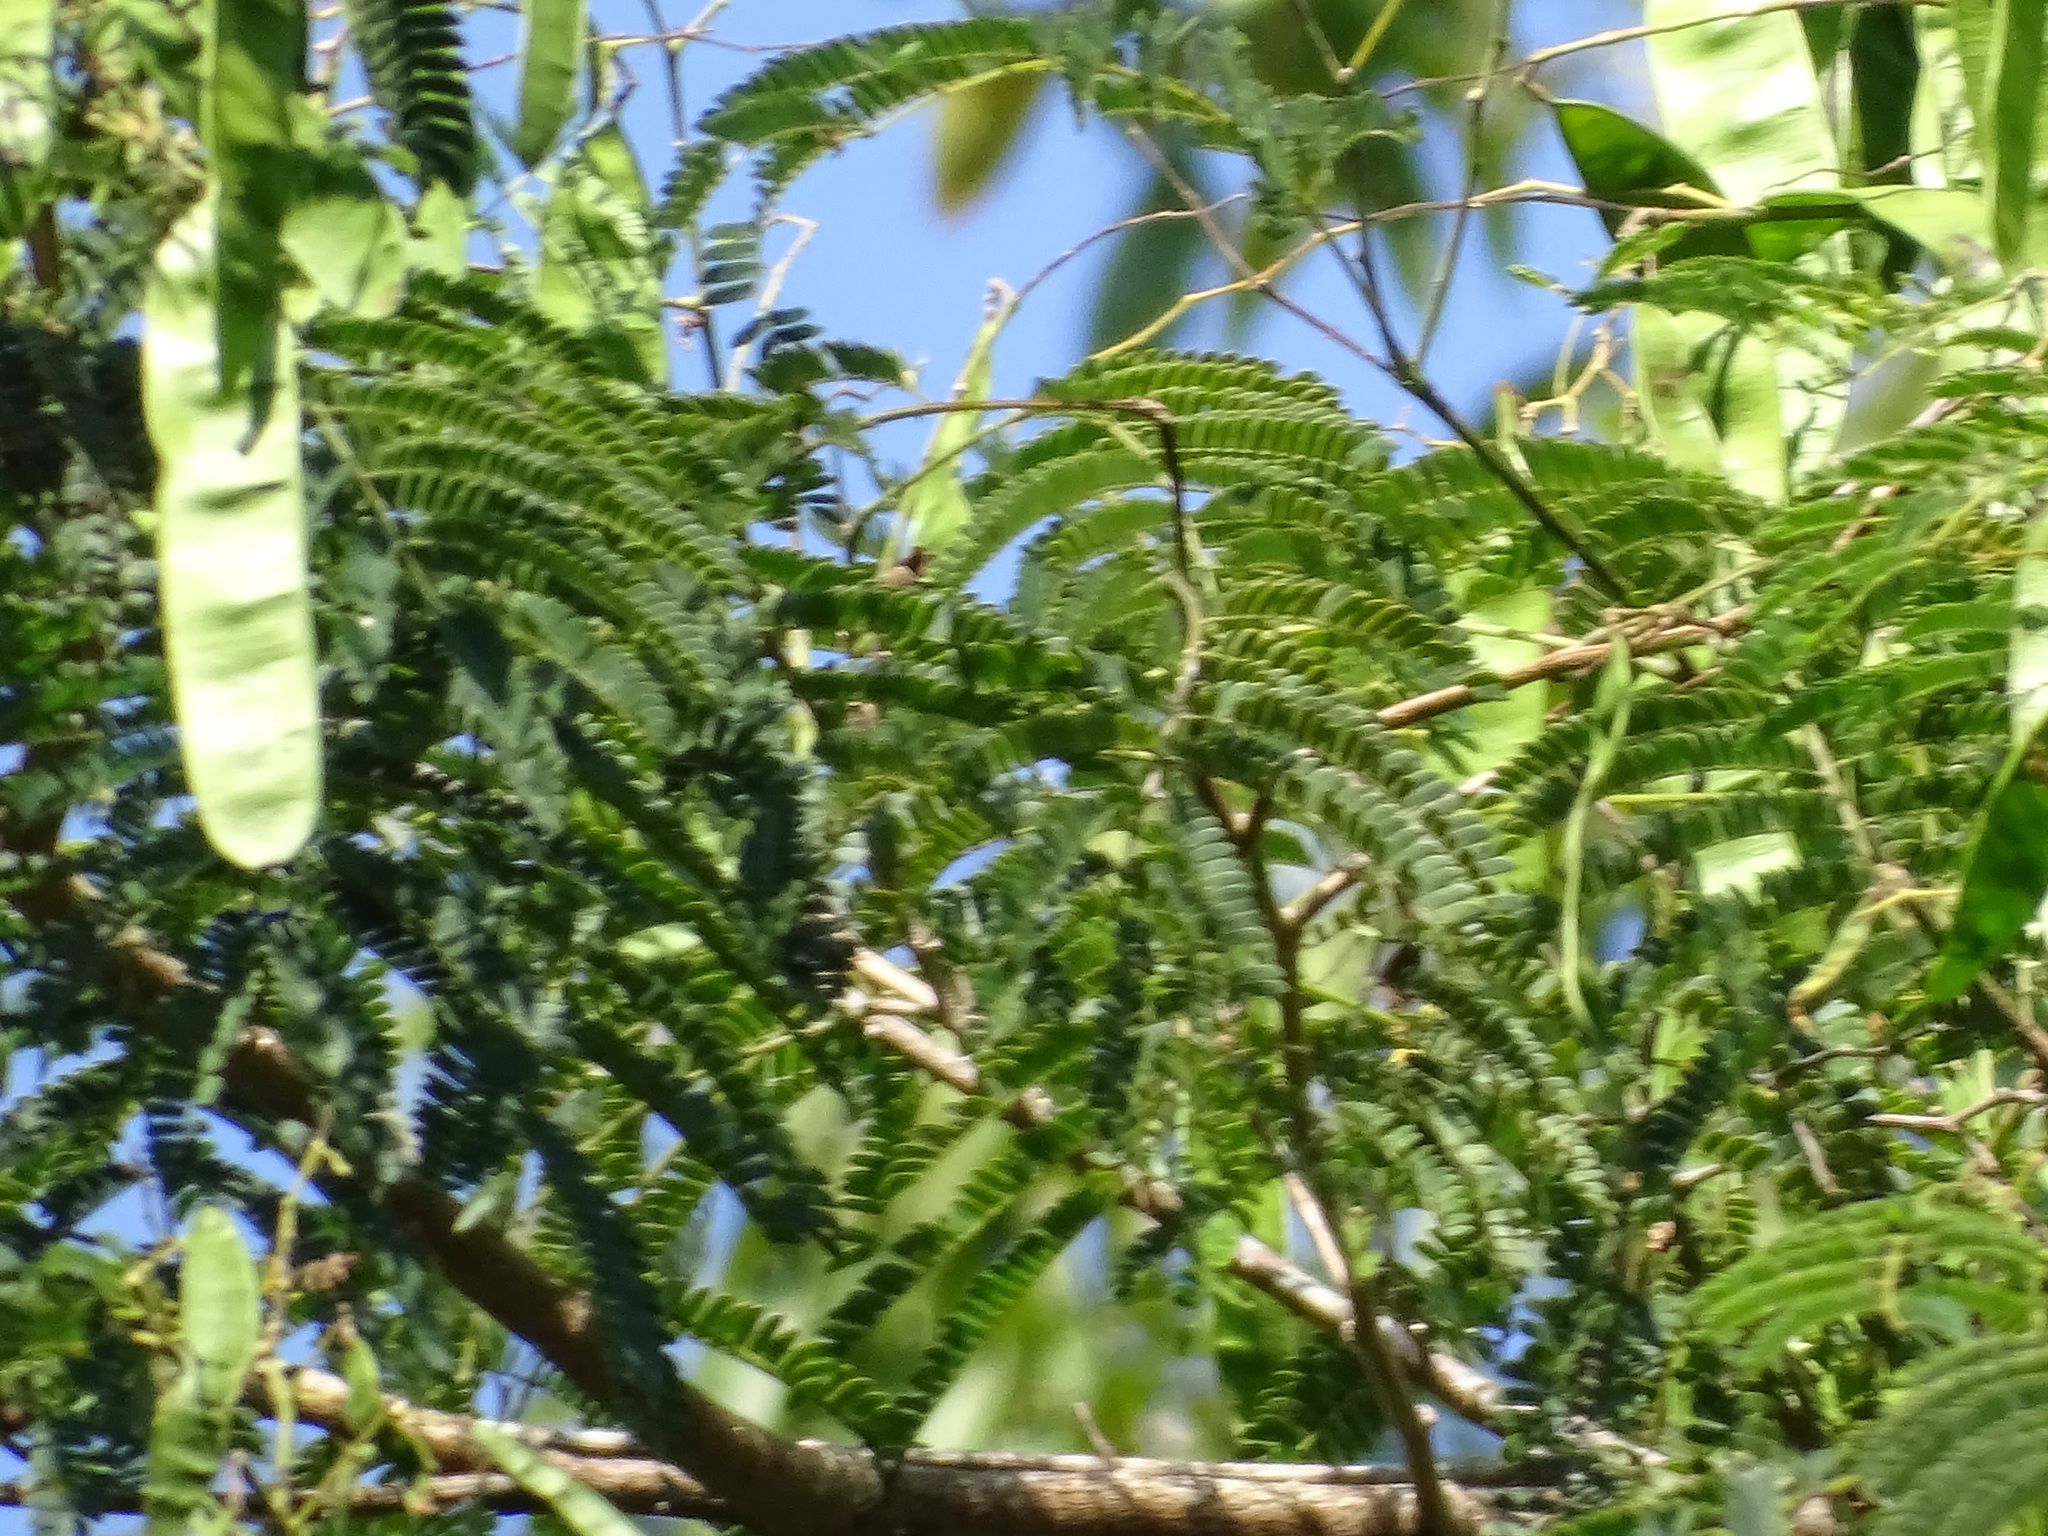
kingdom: Plantae
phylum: Tracheophyta
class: Magnoliopsida
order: Fabales
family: Fabaceae
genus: Lysiloma
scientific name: Lysiloma divaricatum
